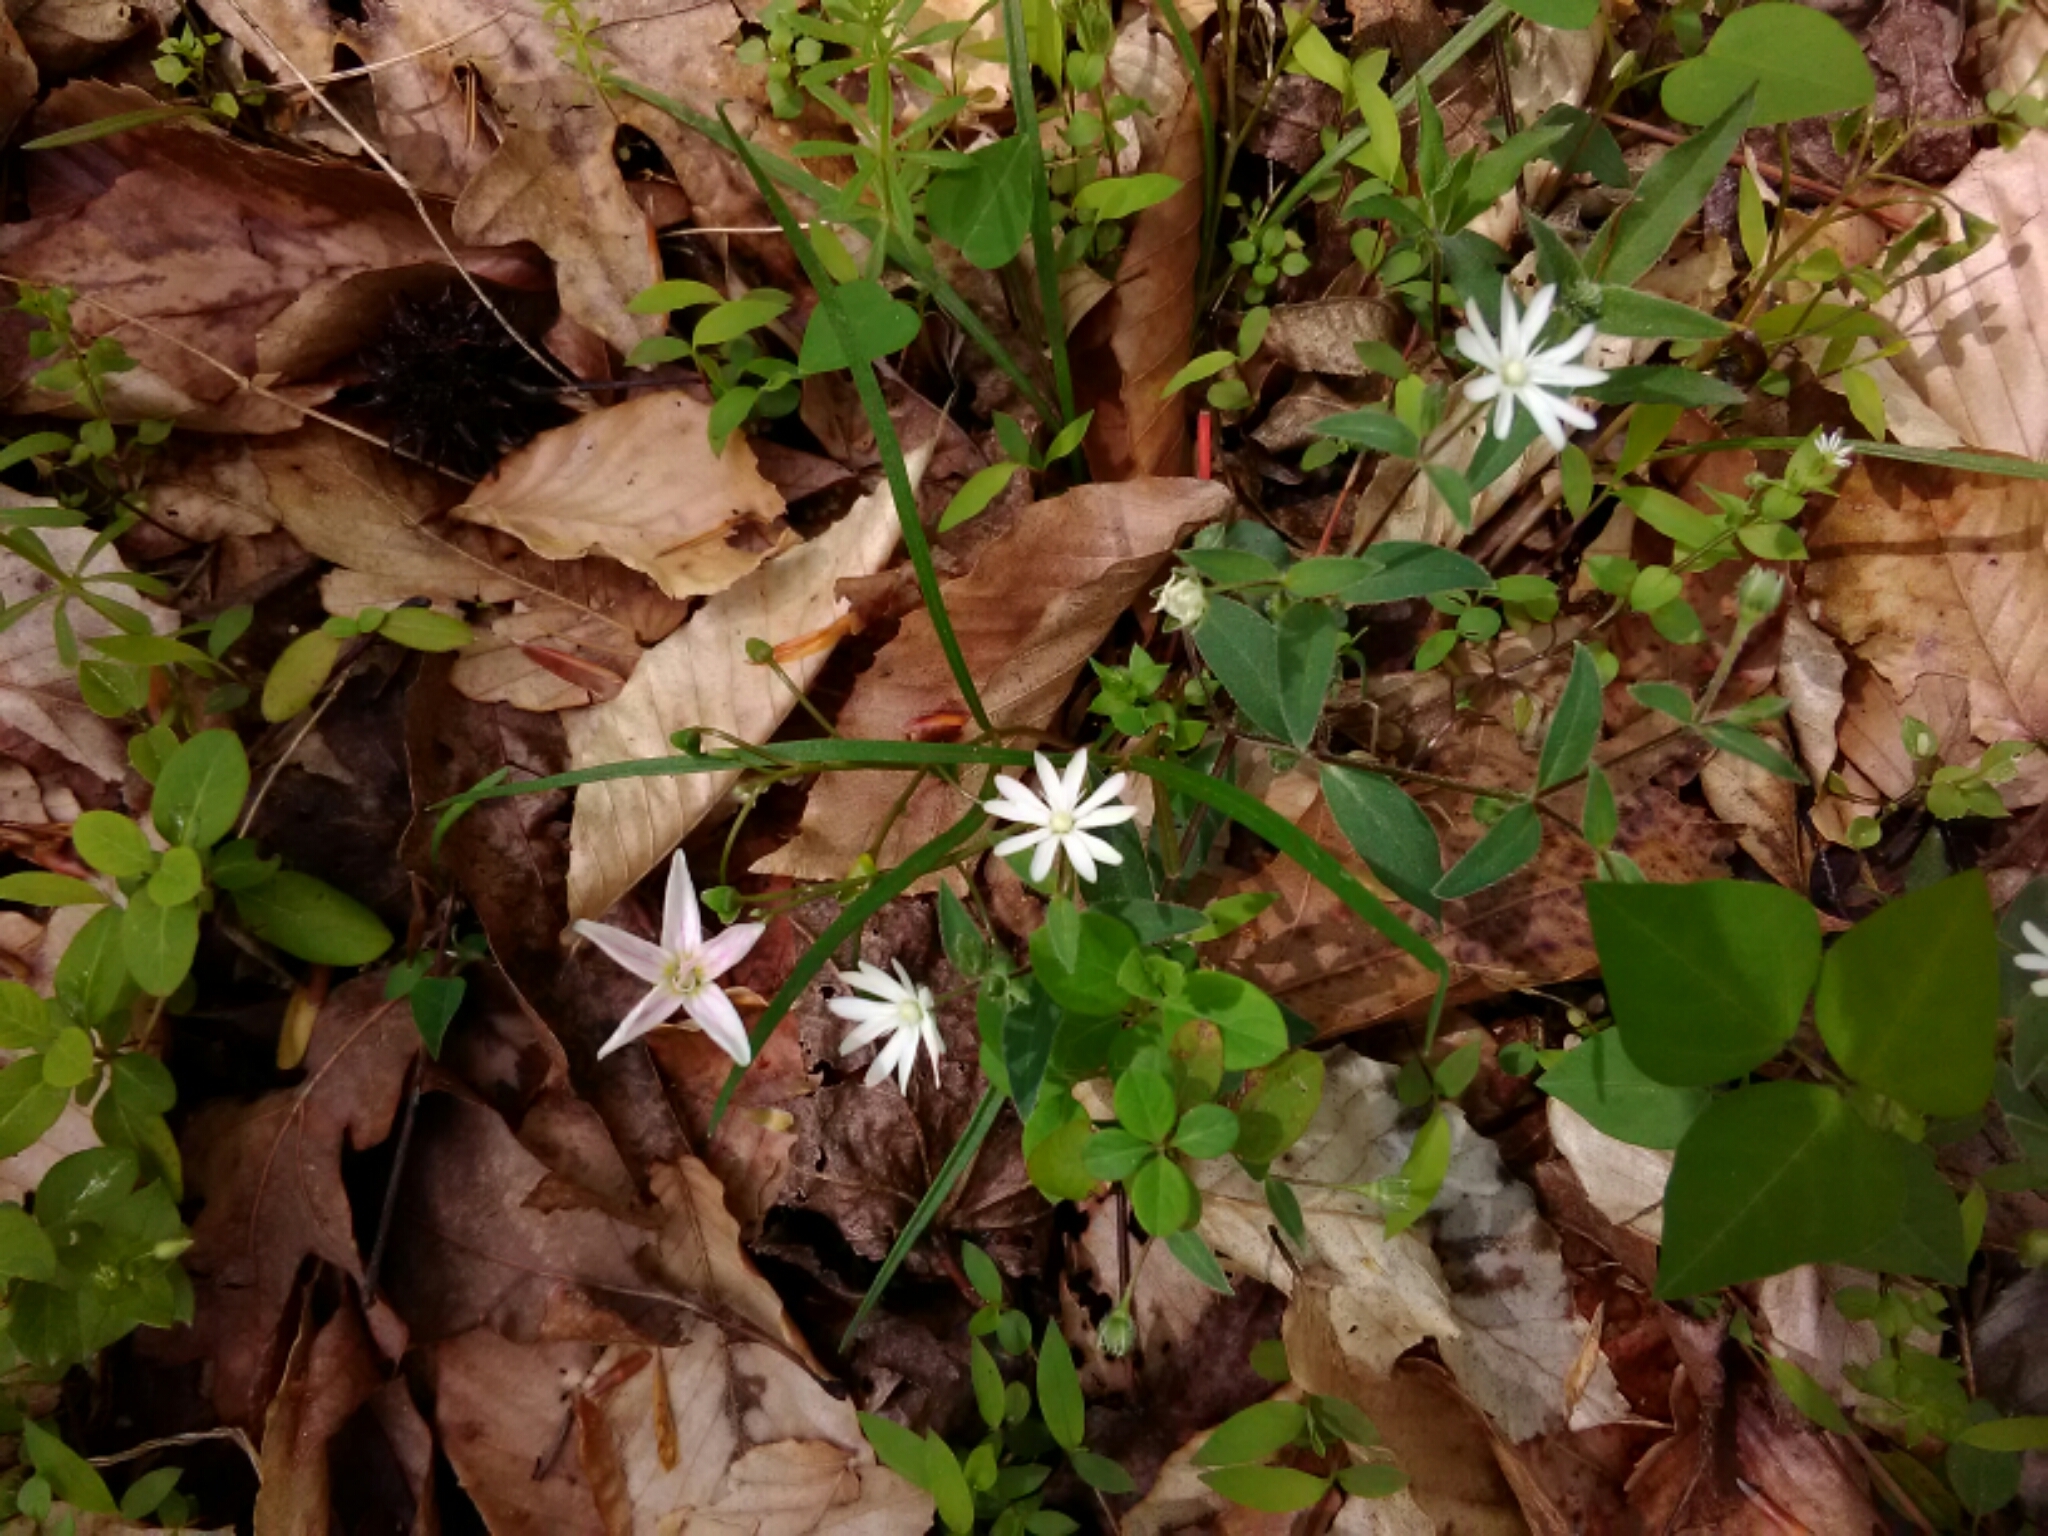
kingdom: Plantae
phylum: Tracheophyta
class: Magnoliopsida
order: Caryophyllales
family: Caryophyllaceae
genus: Stellaria
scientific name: Stellaria pubera
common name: Star chickweed
